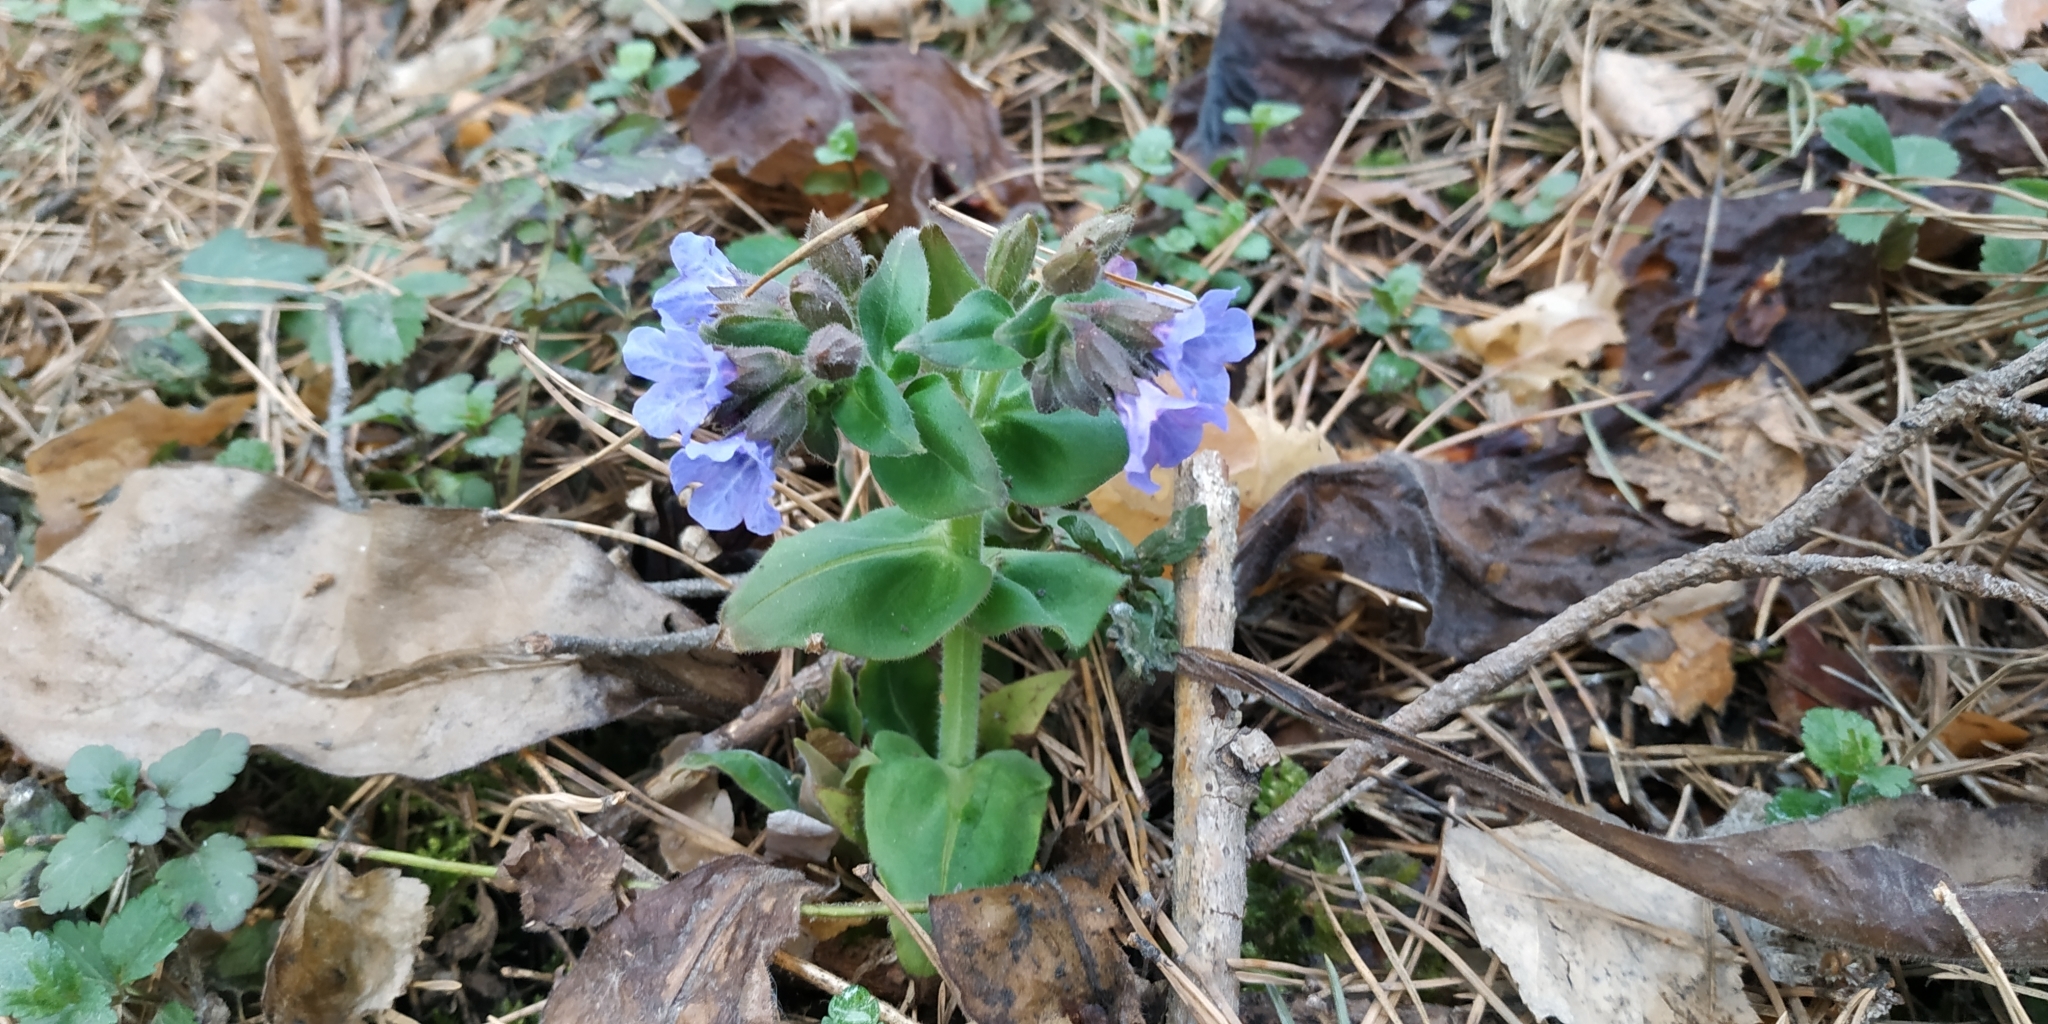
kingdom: Plantae
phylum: Tracheophyta
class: Magnoliopsida
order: Boraginales
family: Boraginaceae
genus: Pulmonaria
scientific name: Pulmonaria mollis
